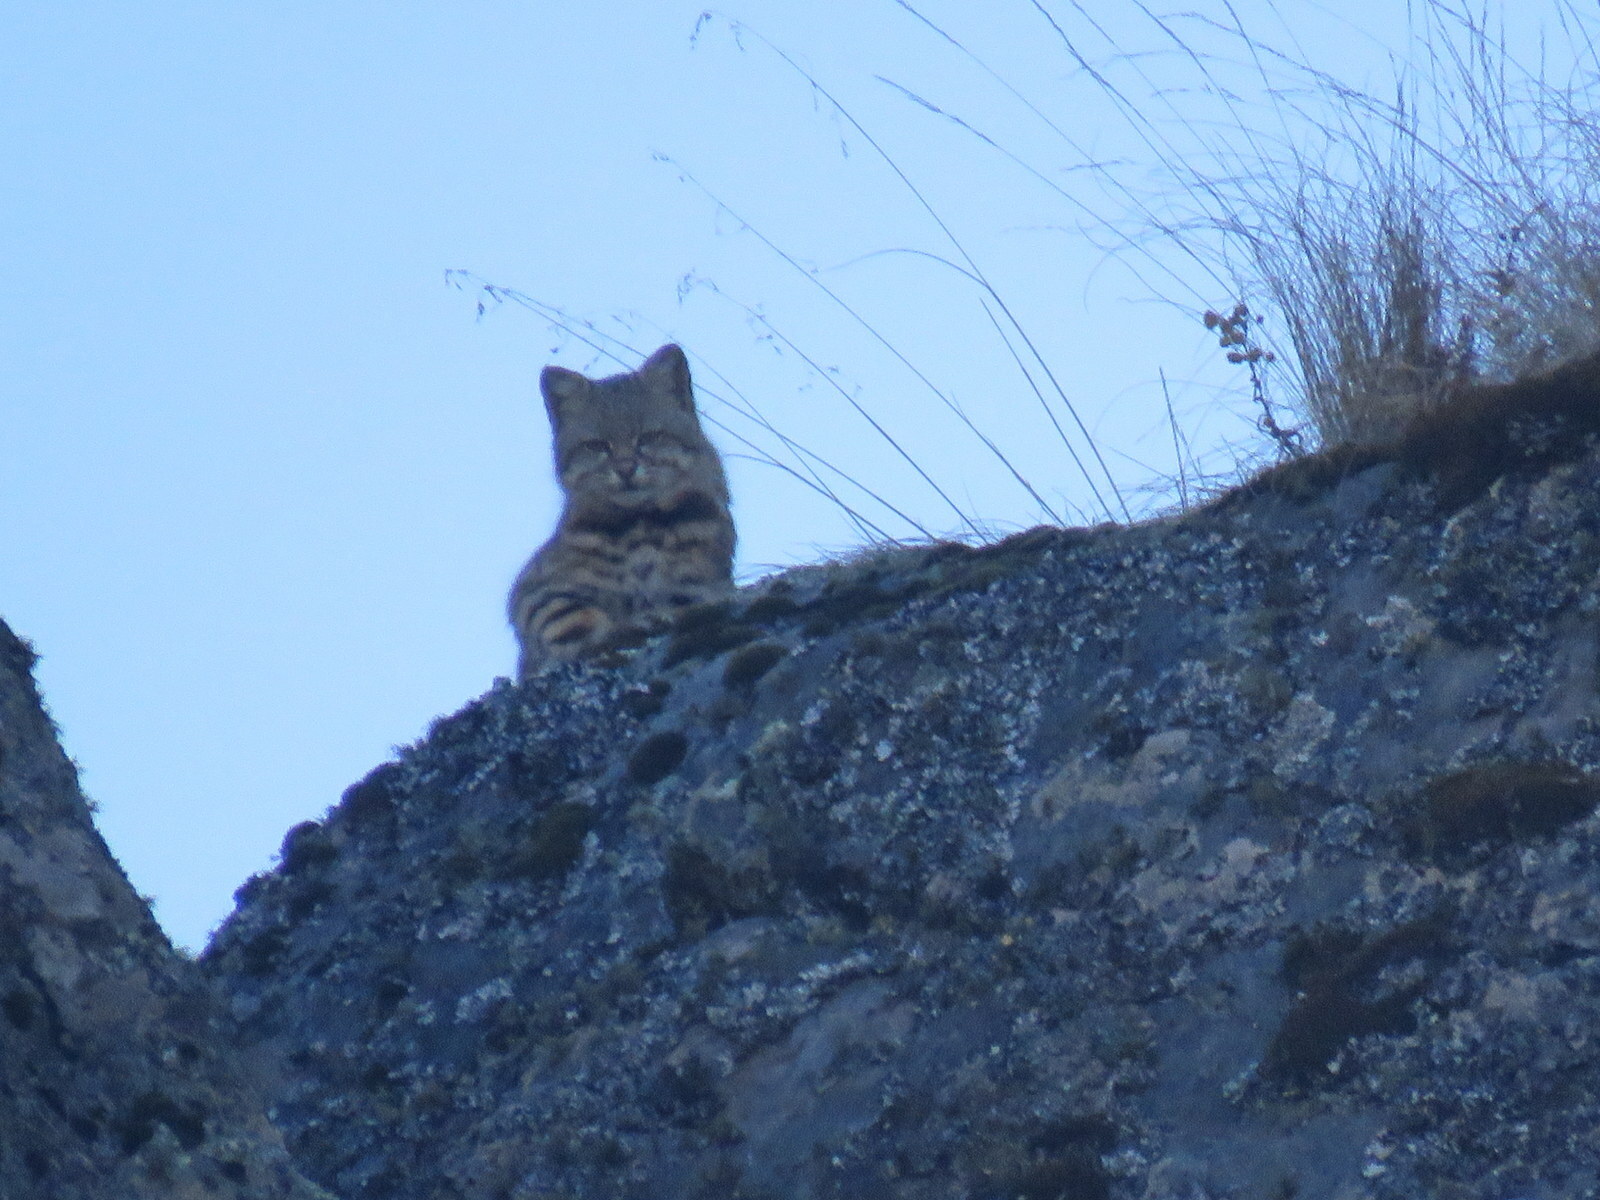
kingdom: Animalia
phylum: Chordata
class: Mammalia
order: Carnivora
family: Felidae
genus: Leopardus
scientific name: Leopardus
